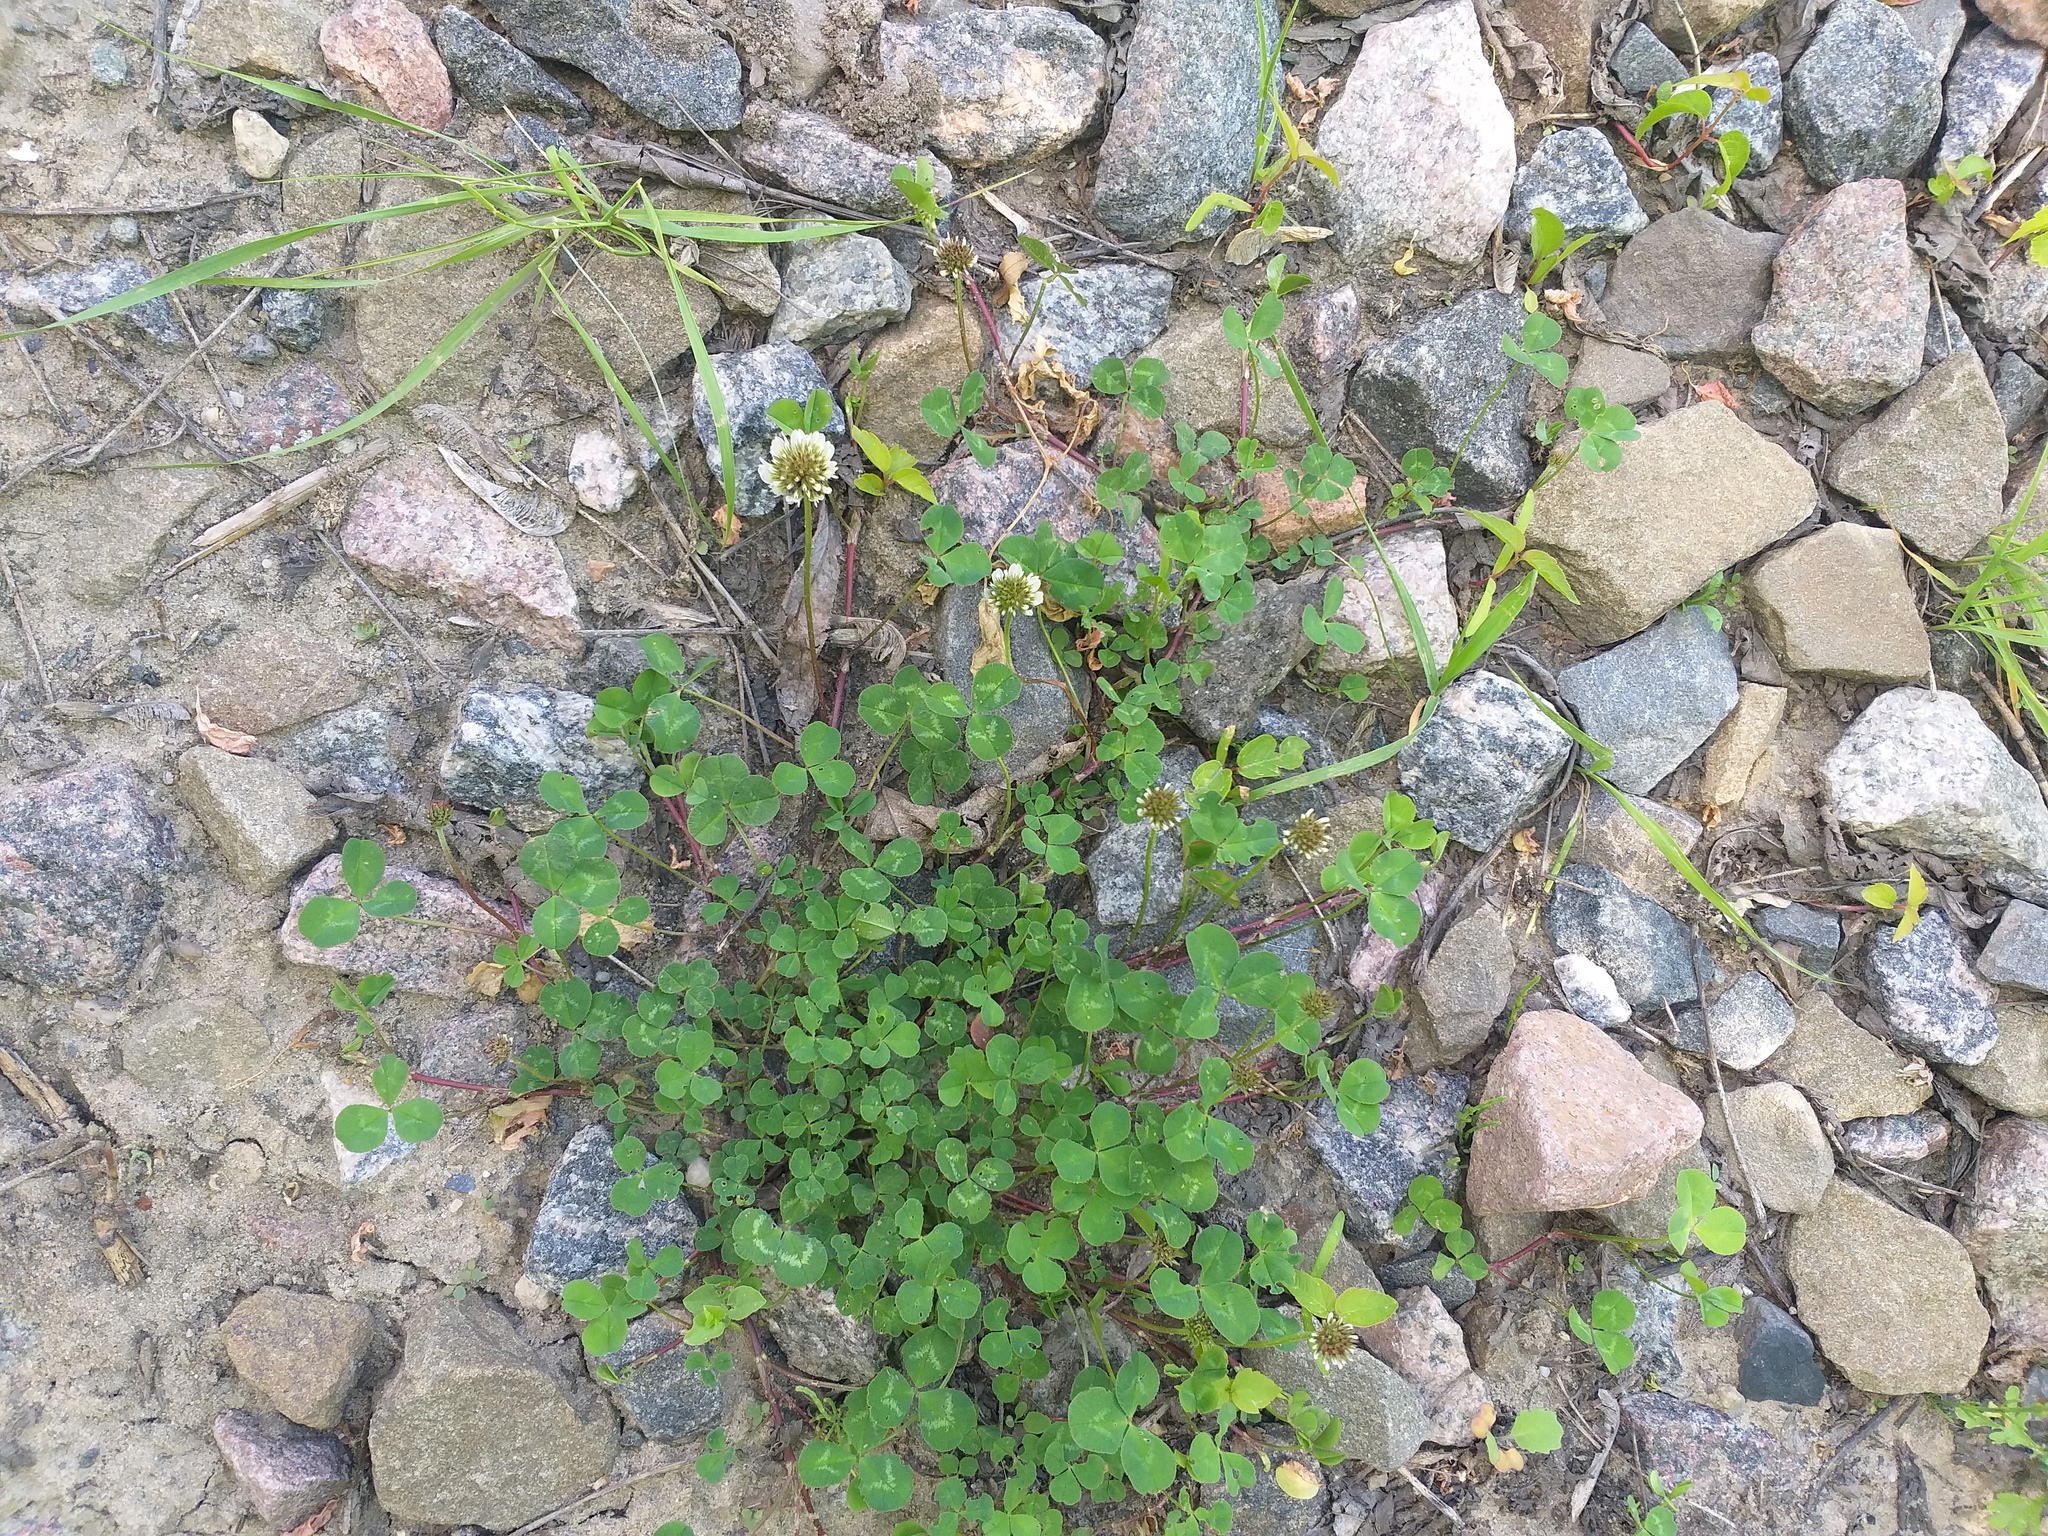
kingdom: Plantae
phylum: Tracheophyta
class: Magnoliopsida
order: Fabales
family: Fabaceae
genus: Trifolium
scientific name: Trifolium repens
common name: White clover
